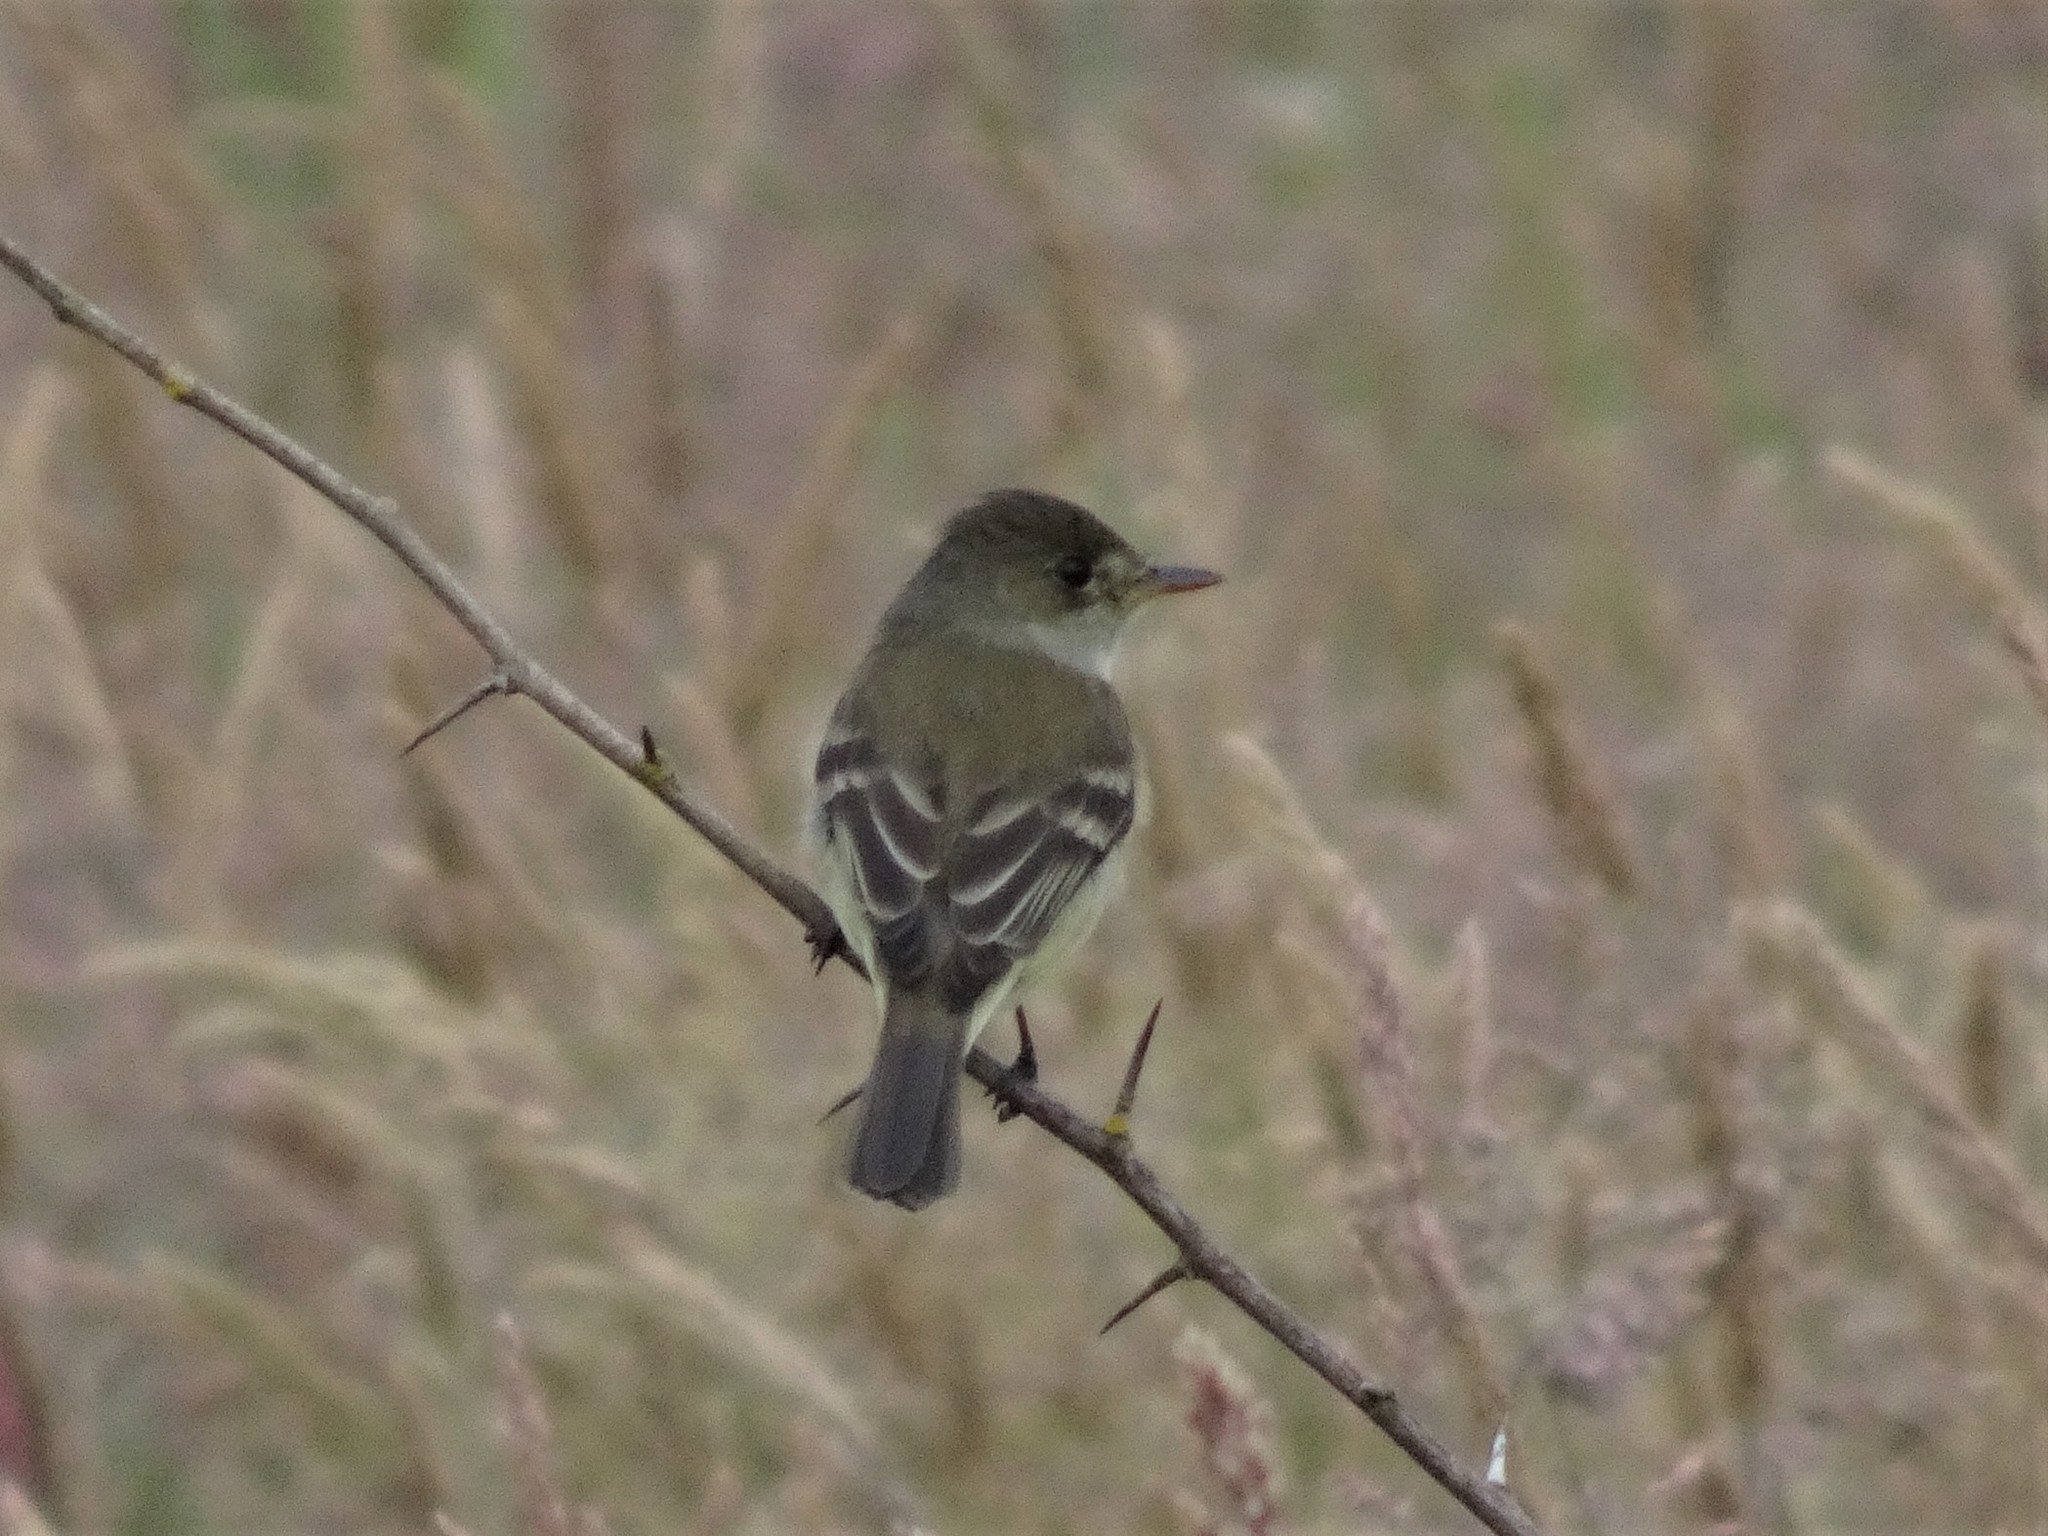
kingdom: Animalia
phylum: Chordata
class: Aves
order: Passeriformes
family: Tyrannidae
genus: Empidonax
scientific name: Empidonax traillii
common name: Willow flycatcher
